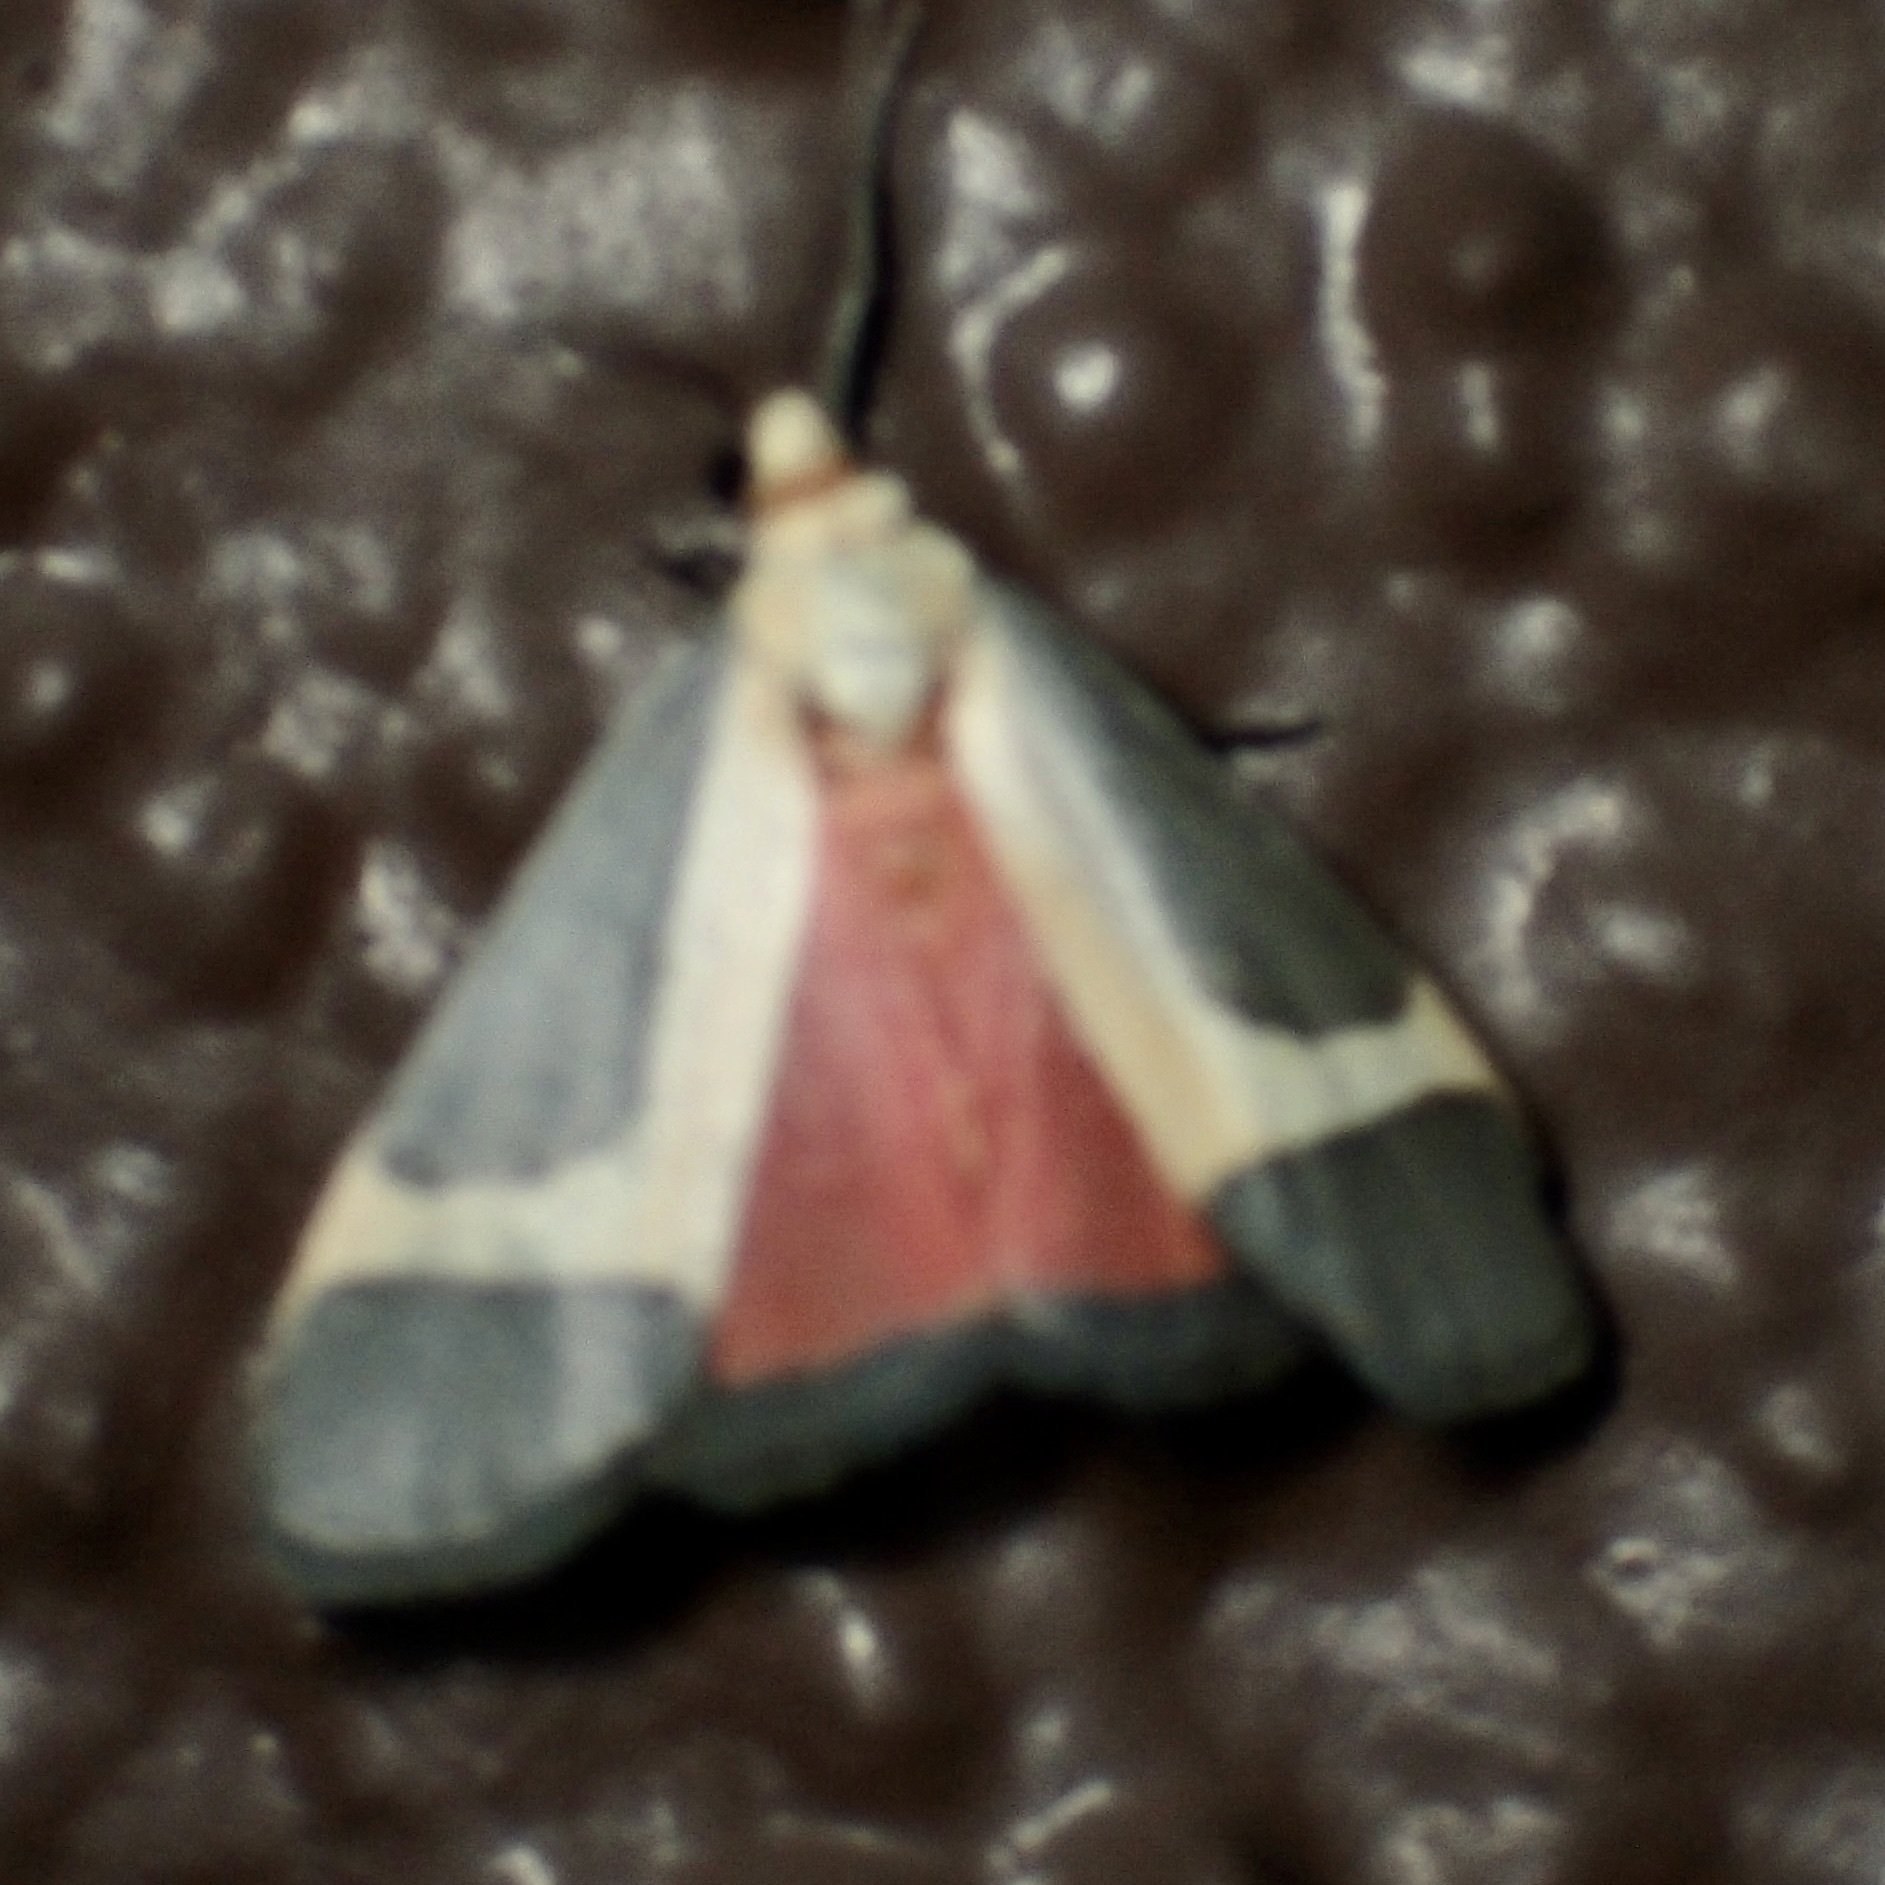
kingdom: Animalia
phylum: Arthropoda
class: Insecta
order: Lepidoptera
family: Erebidae
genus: Cisthene
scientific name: Cisthene angelus
